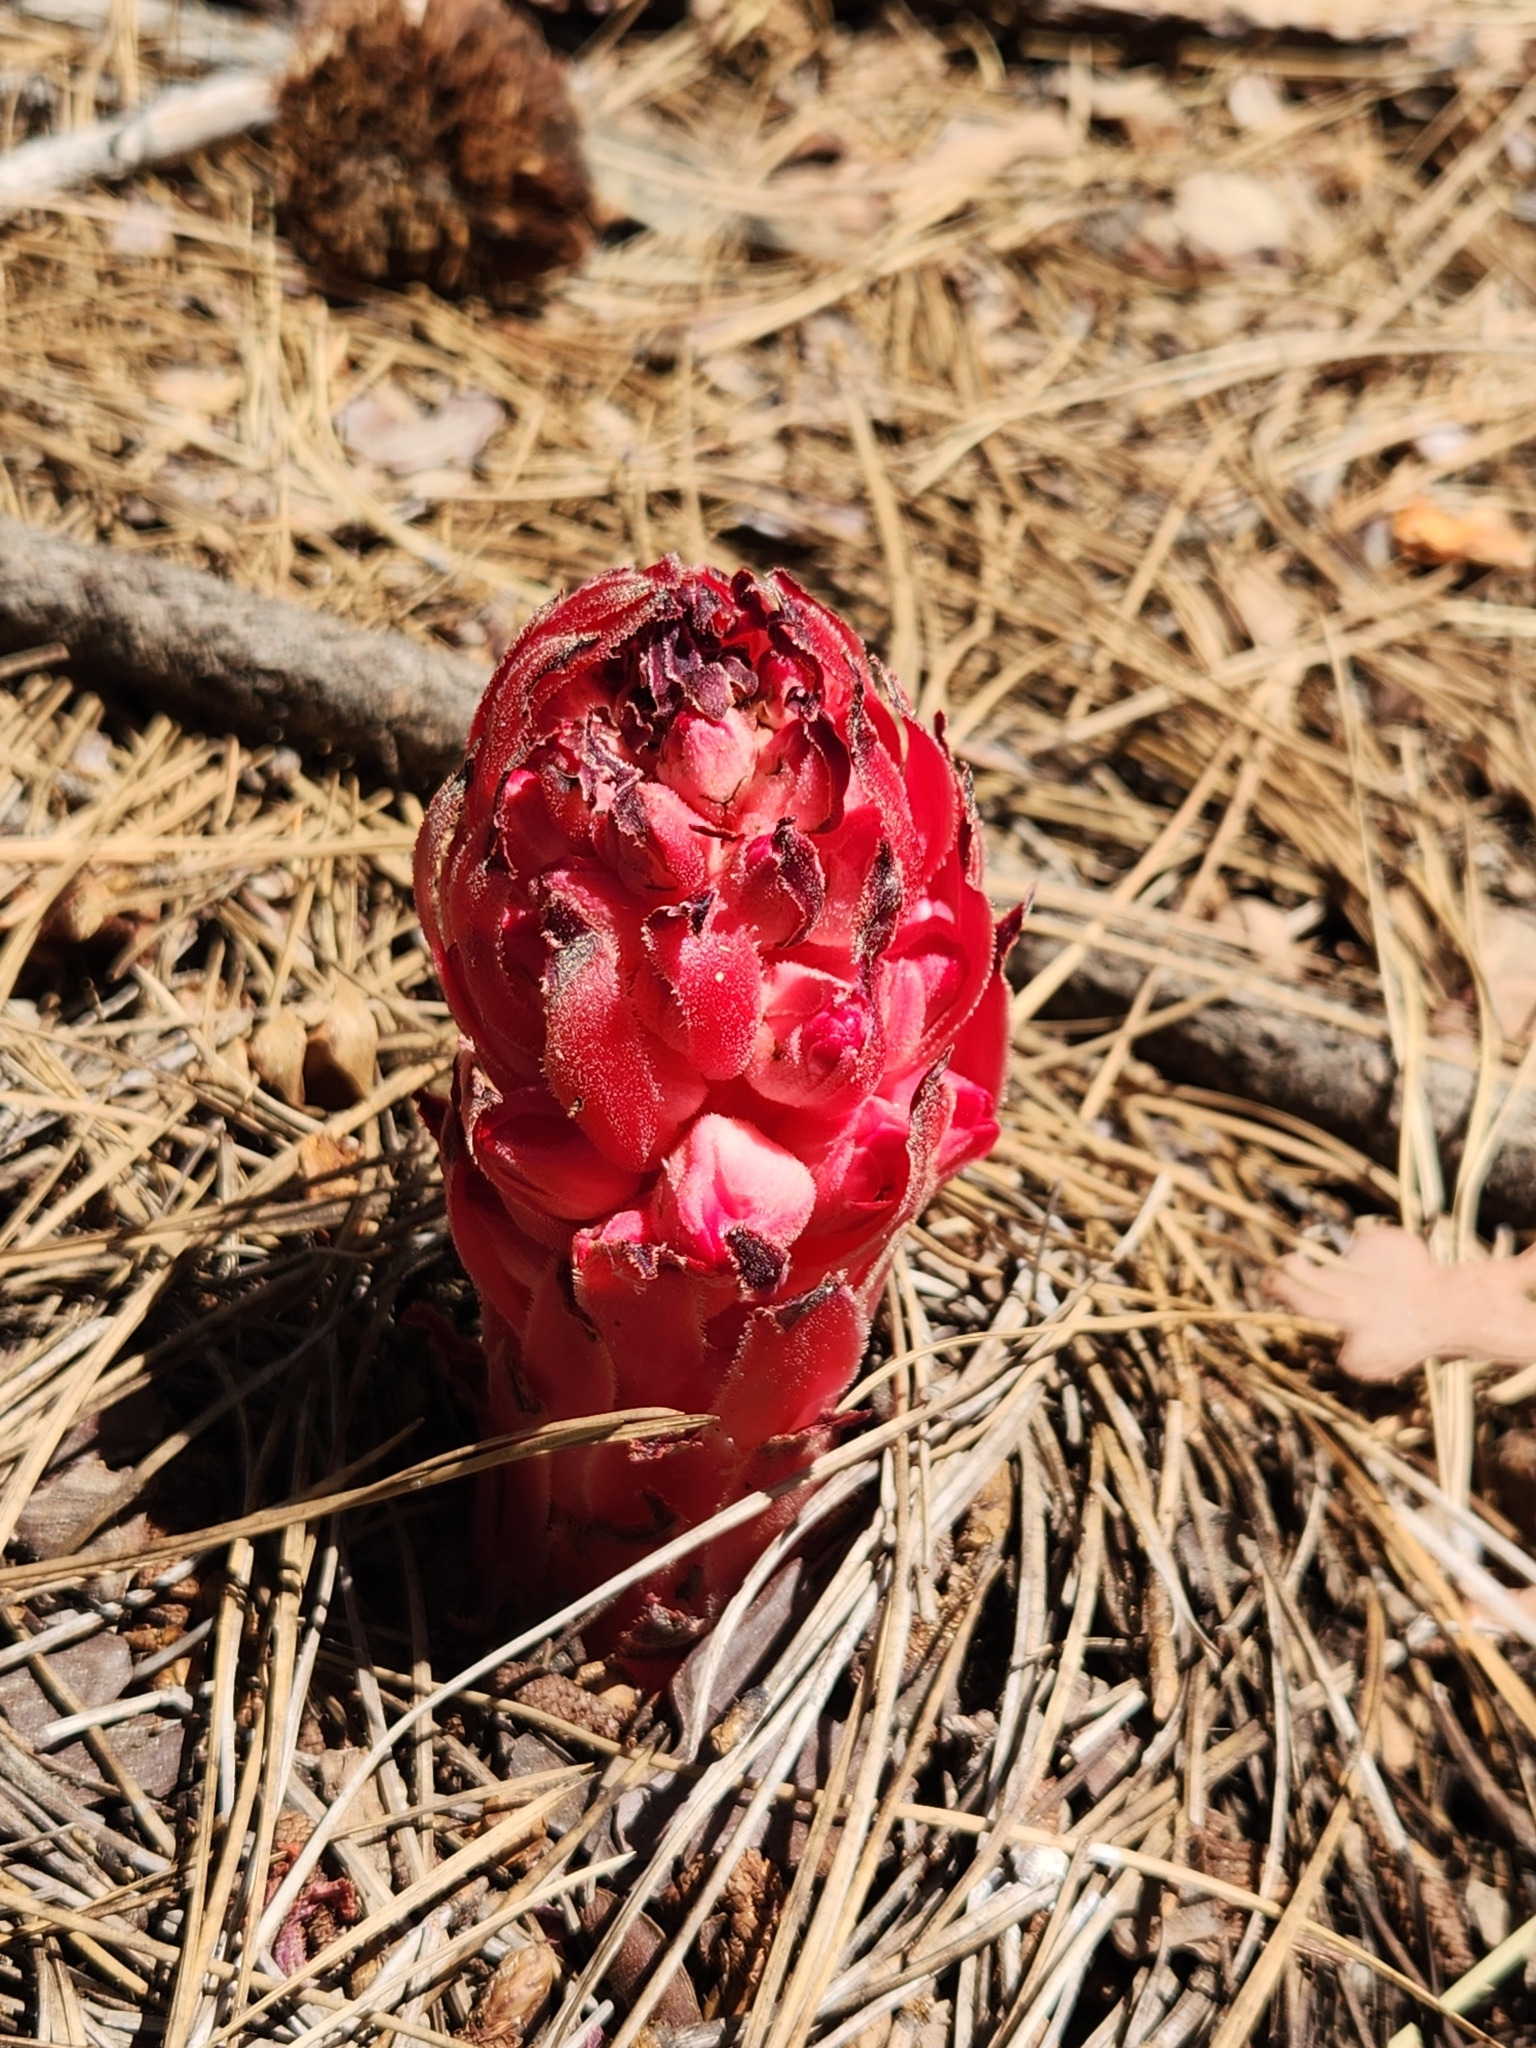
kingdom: Plantae
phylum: Tracheophyta
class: Magnoliopsida
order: Ericales
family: Ericaceae
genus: Sarcodes
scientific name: Sarcodes sanguinea
